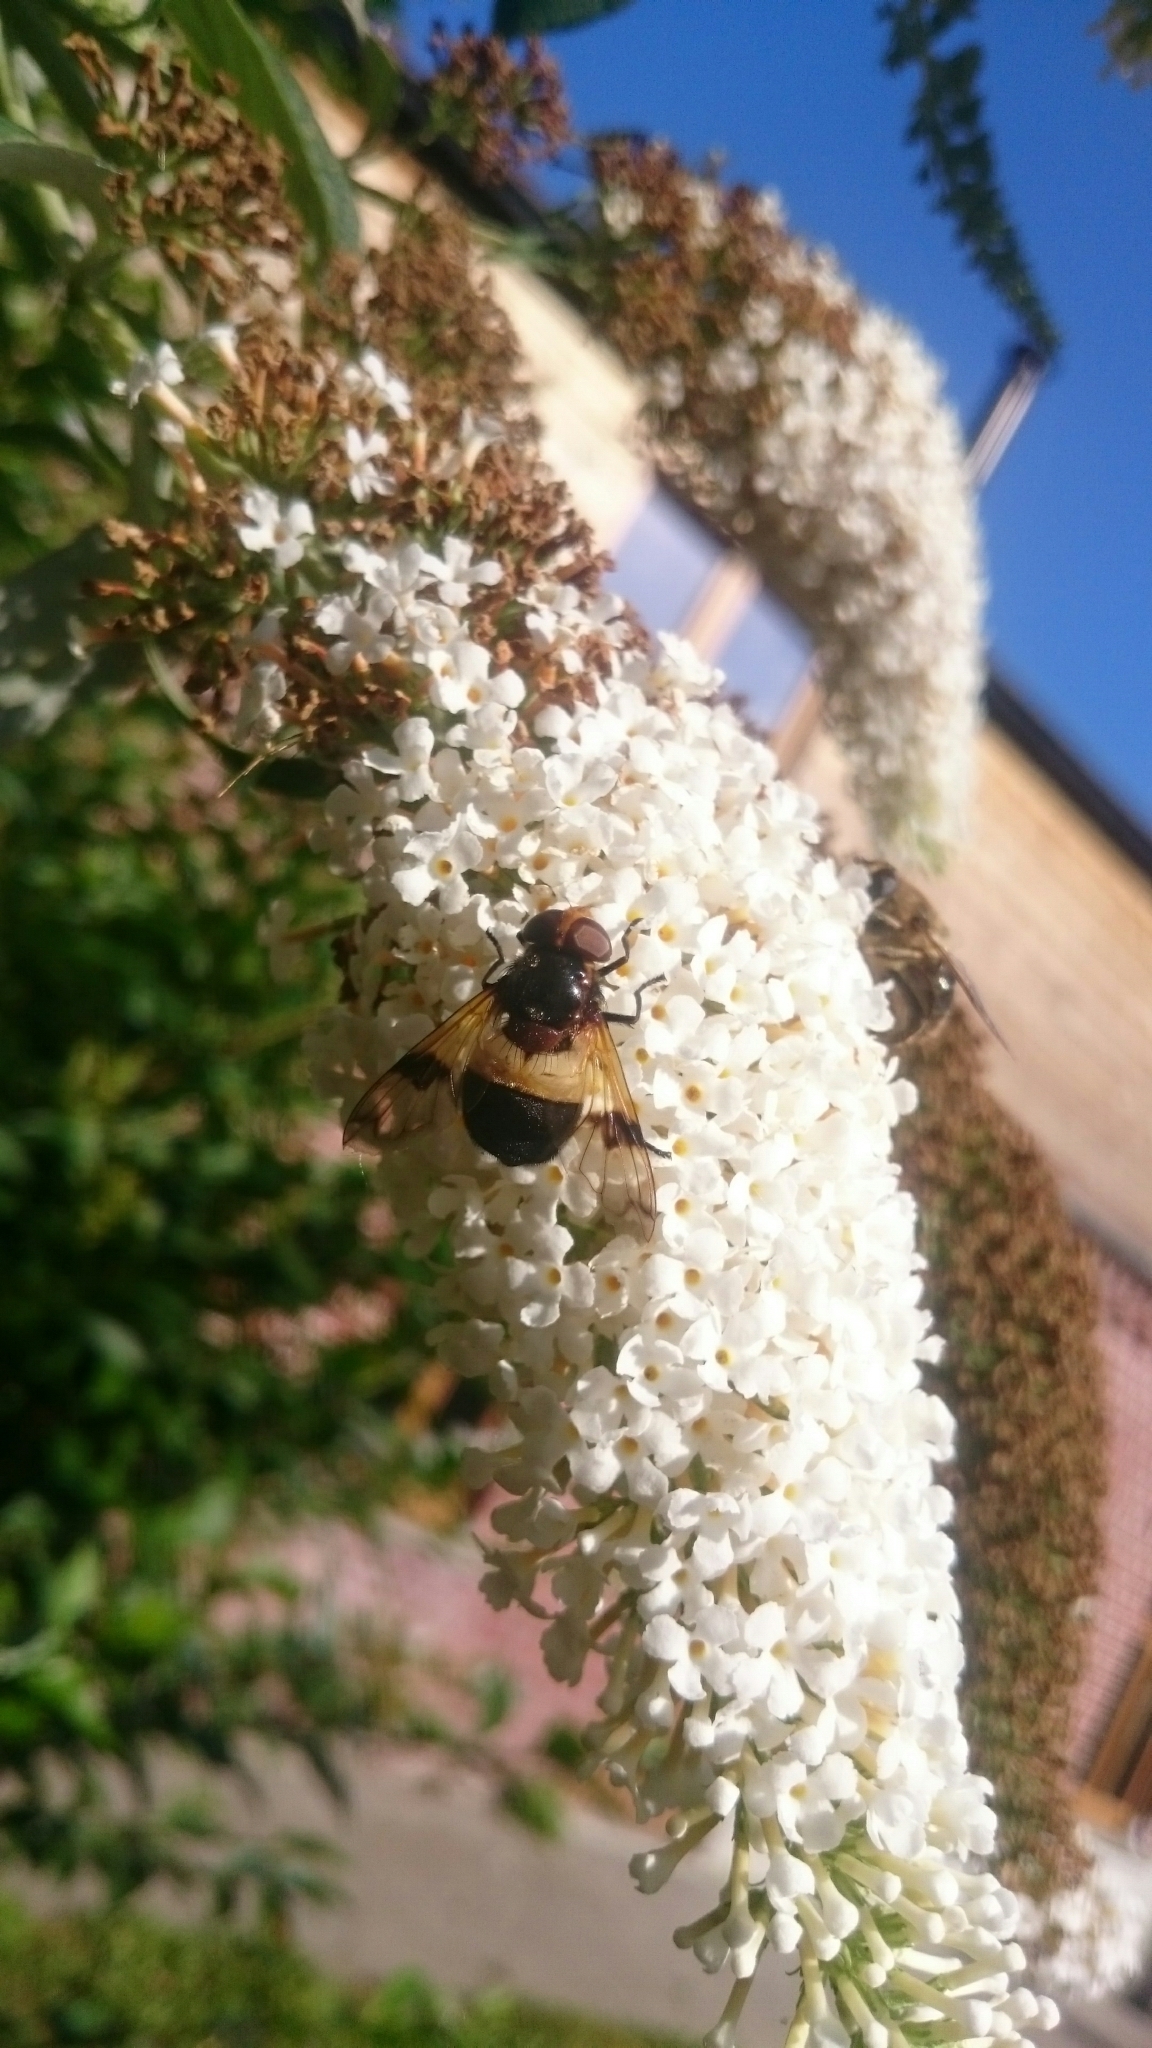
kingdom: Animalia
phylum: Arthropoda
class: Insecta
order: Diptera
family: Syrphidae
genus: Volucella
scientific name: Volucella pellucens
